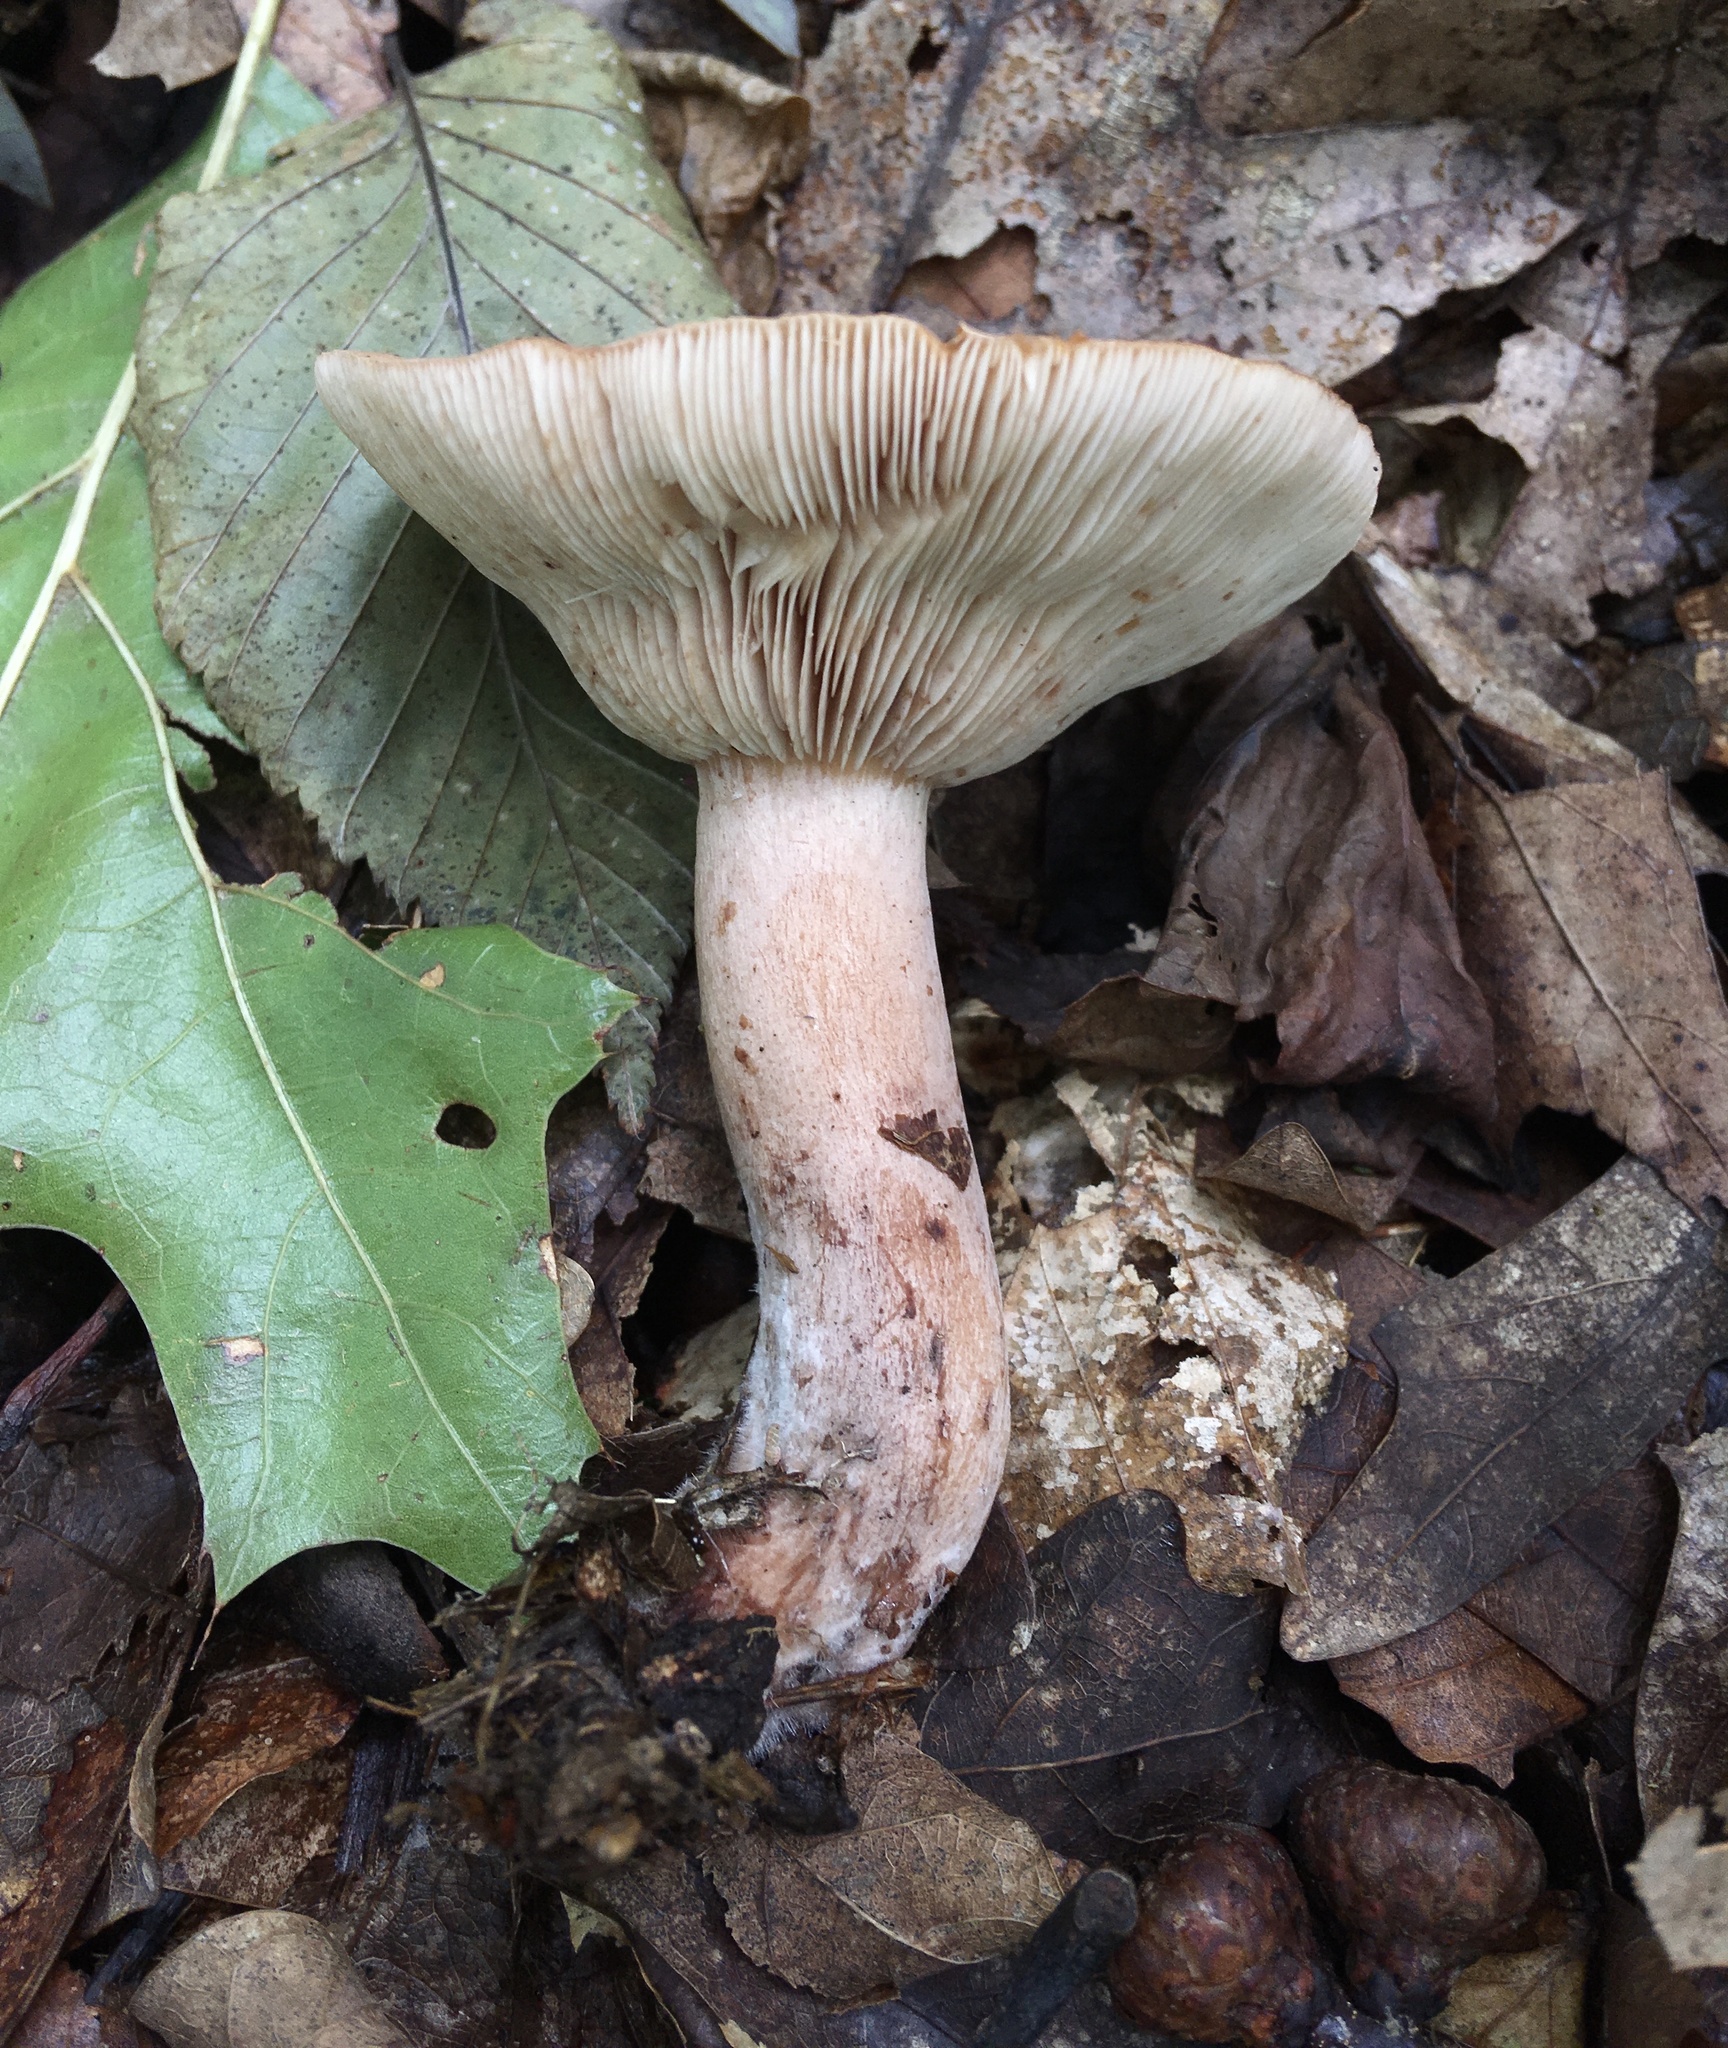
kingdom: Fungi
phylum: Basidiomycota
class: Agaricomycetes
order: Russulales
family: Russulaceae
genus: Lactarius
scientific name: Lactarius mutabilis
